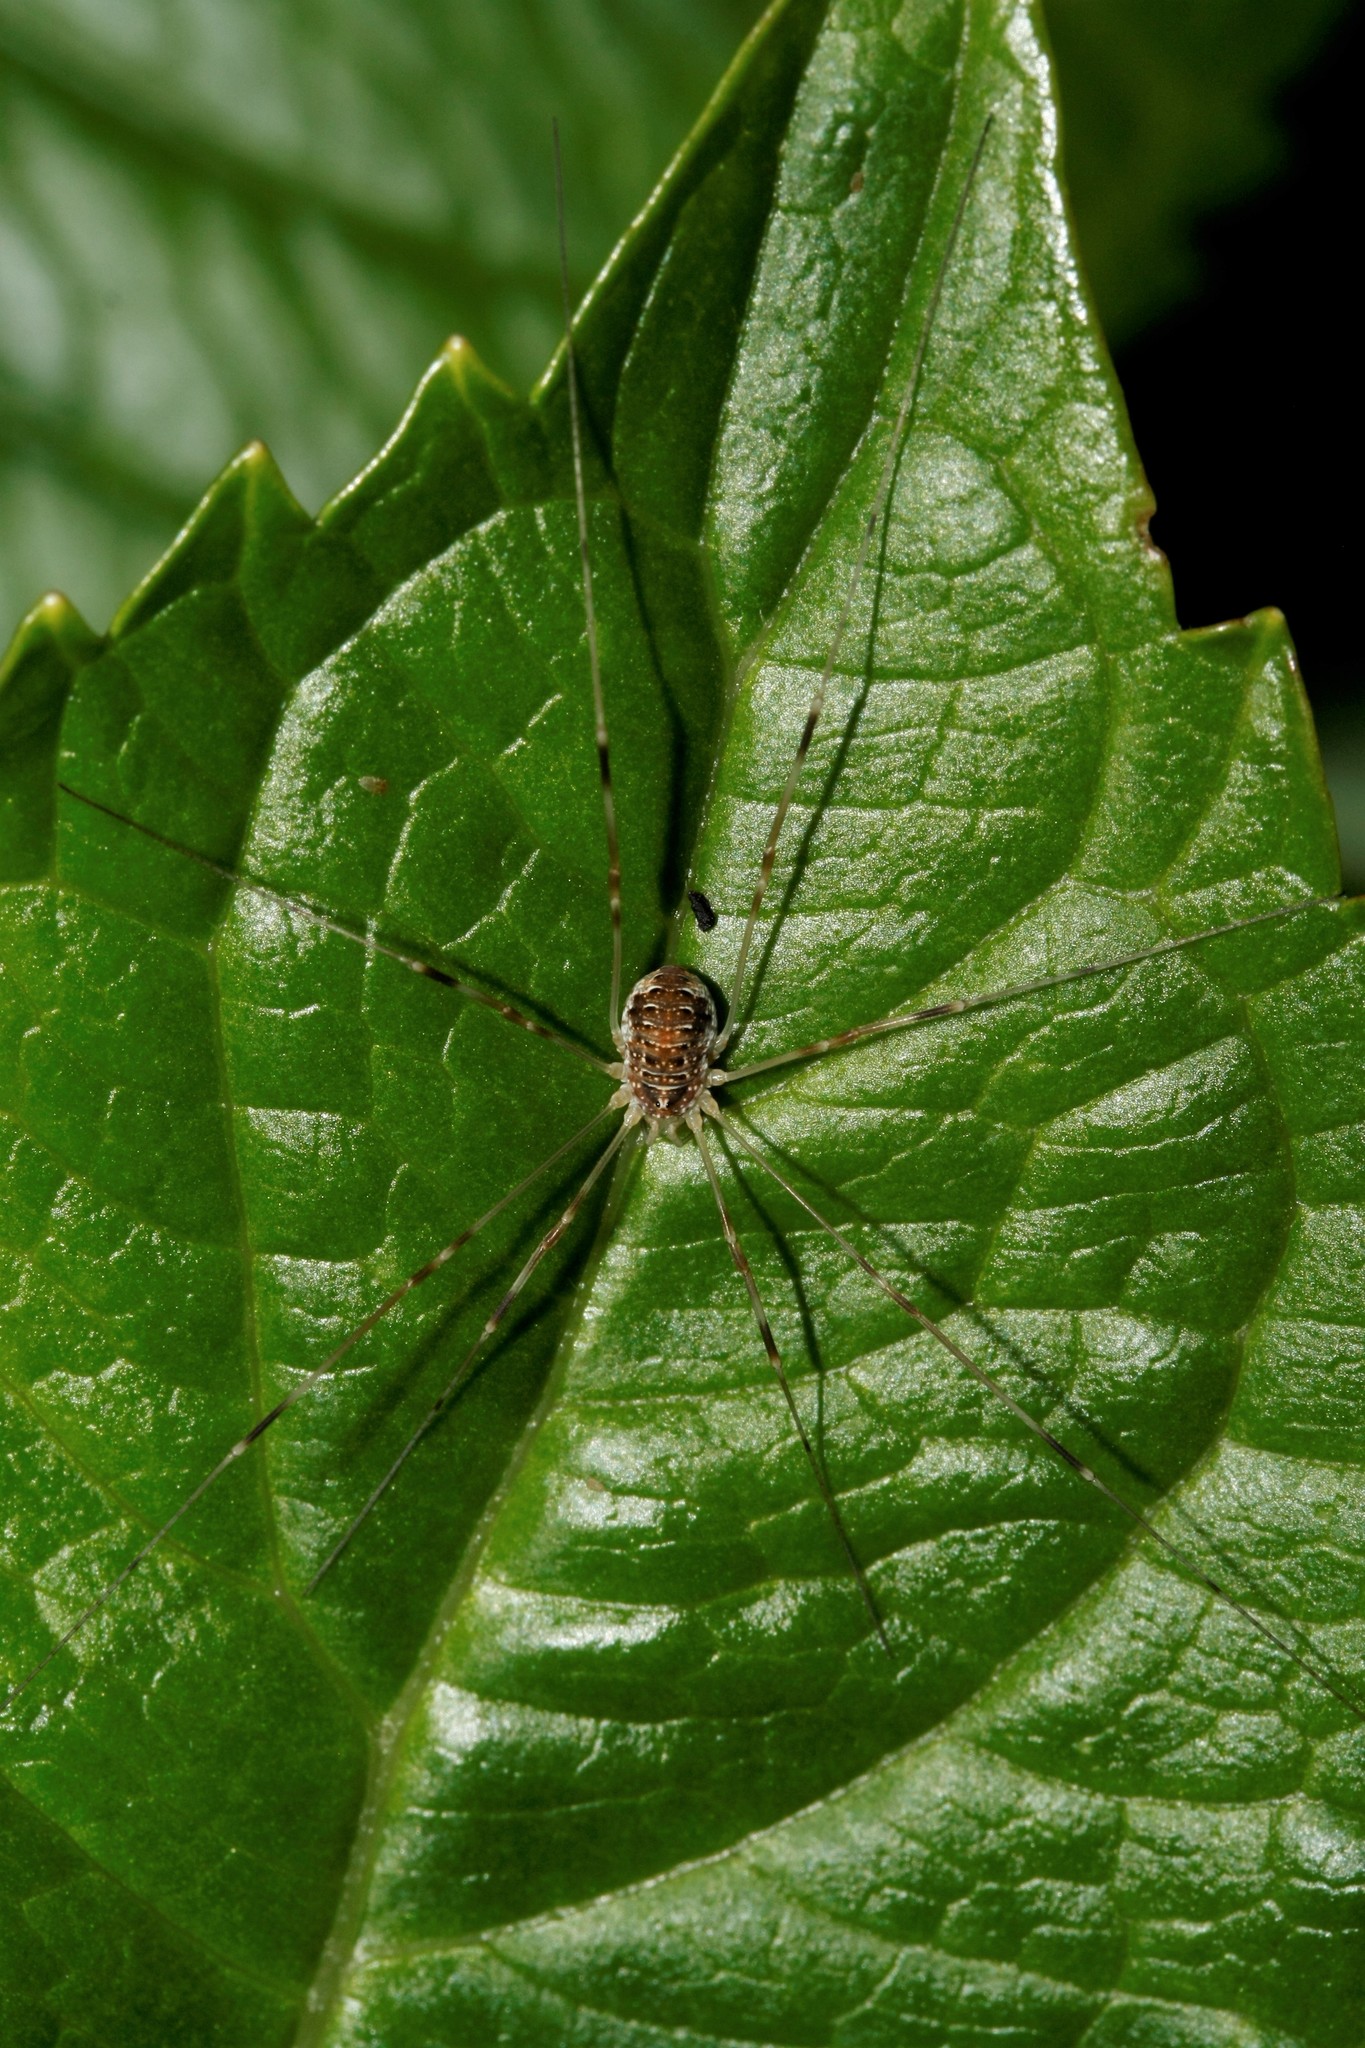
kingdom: Animalia
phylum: Arthropoda
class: Arachnida
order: Opiliones
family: Phalangiidae
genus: Opilio
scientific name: Opilio canestrinii
